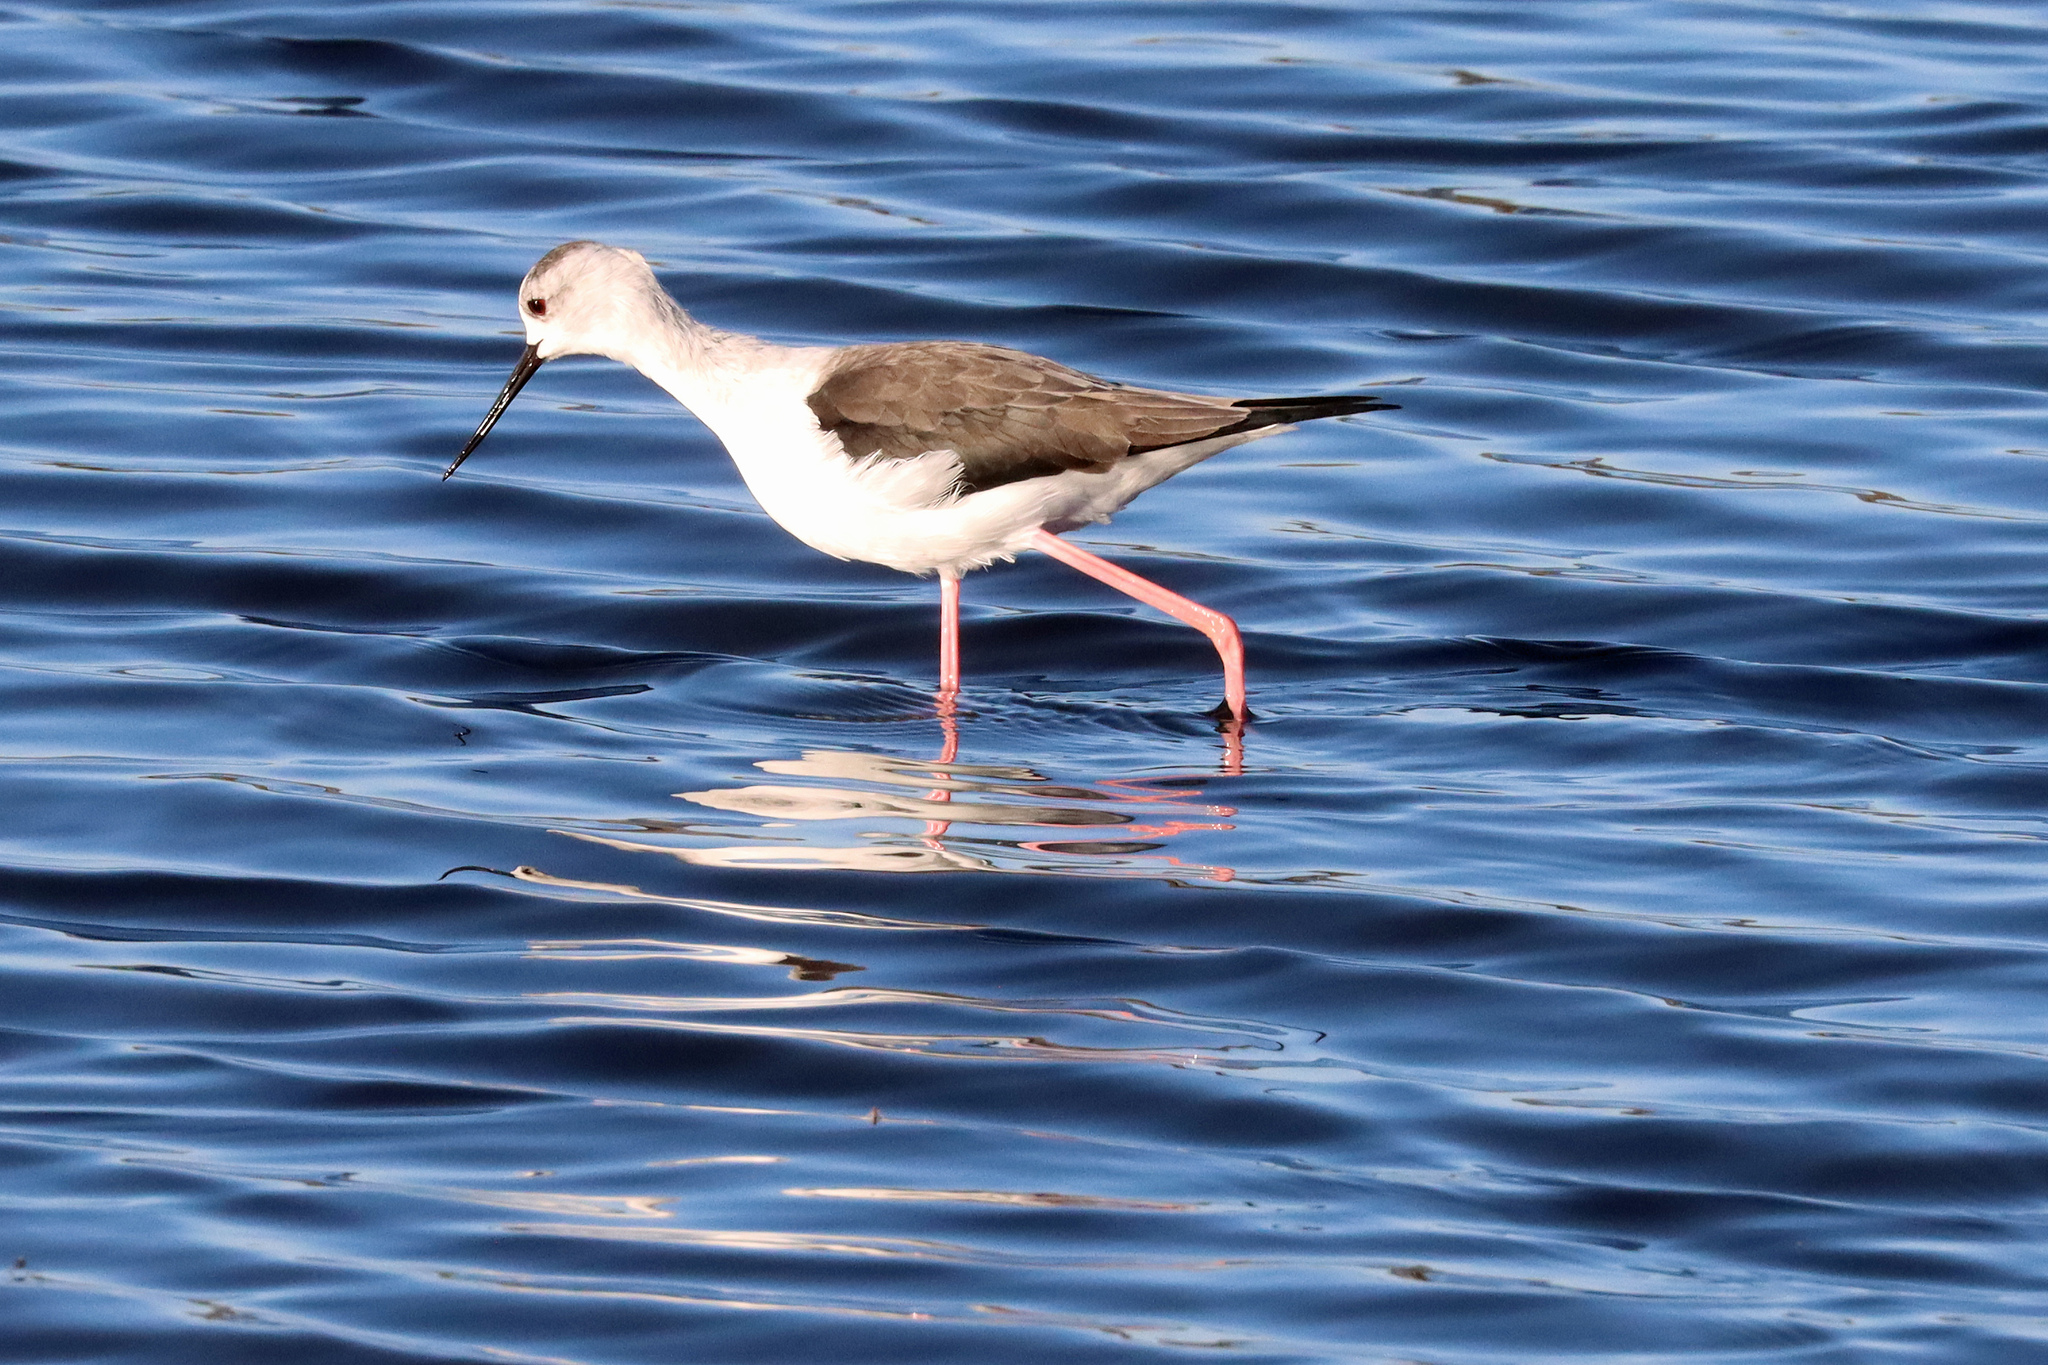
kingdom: Animalia
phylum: Chordata
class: Aves
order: Charadriiformes
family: Recurvirostridae
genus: Himantopus
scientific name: Himantopus himantopus
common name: Black-winged stilt
